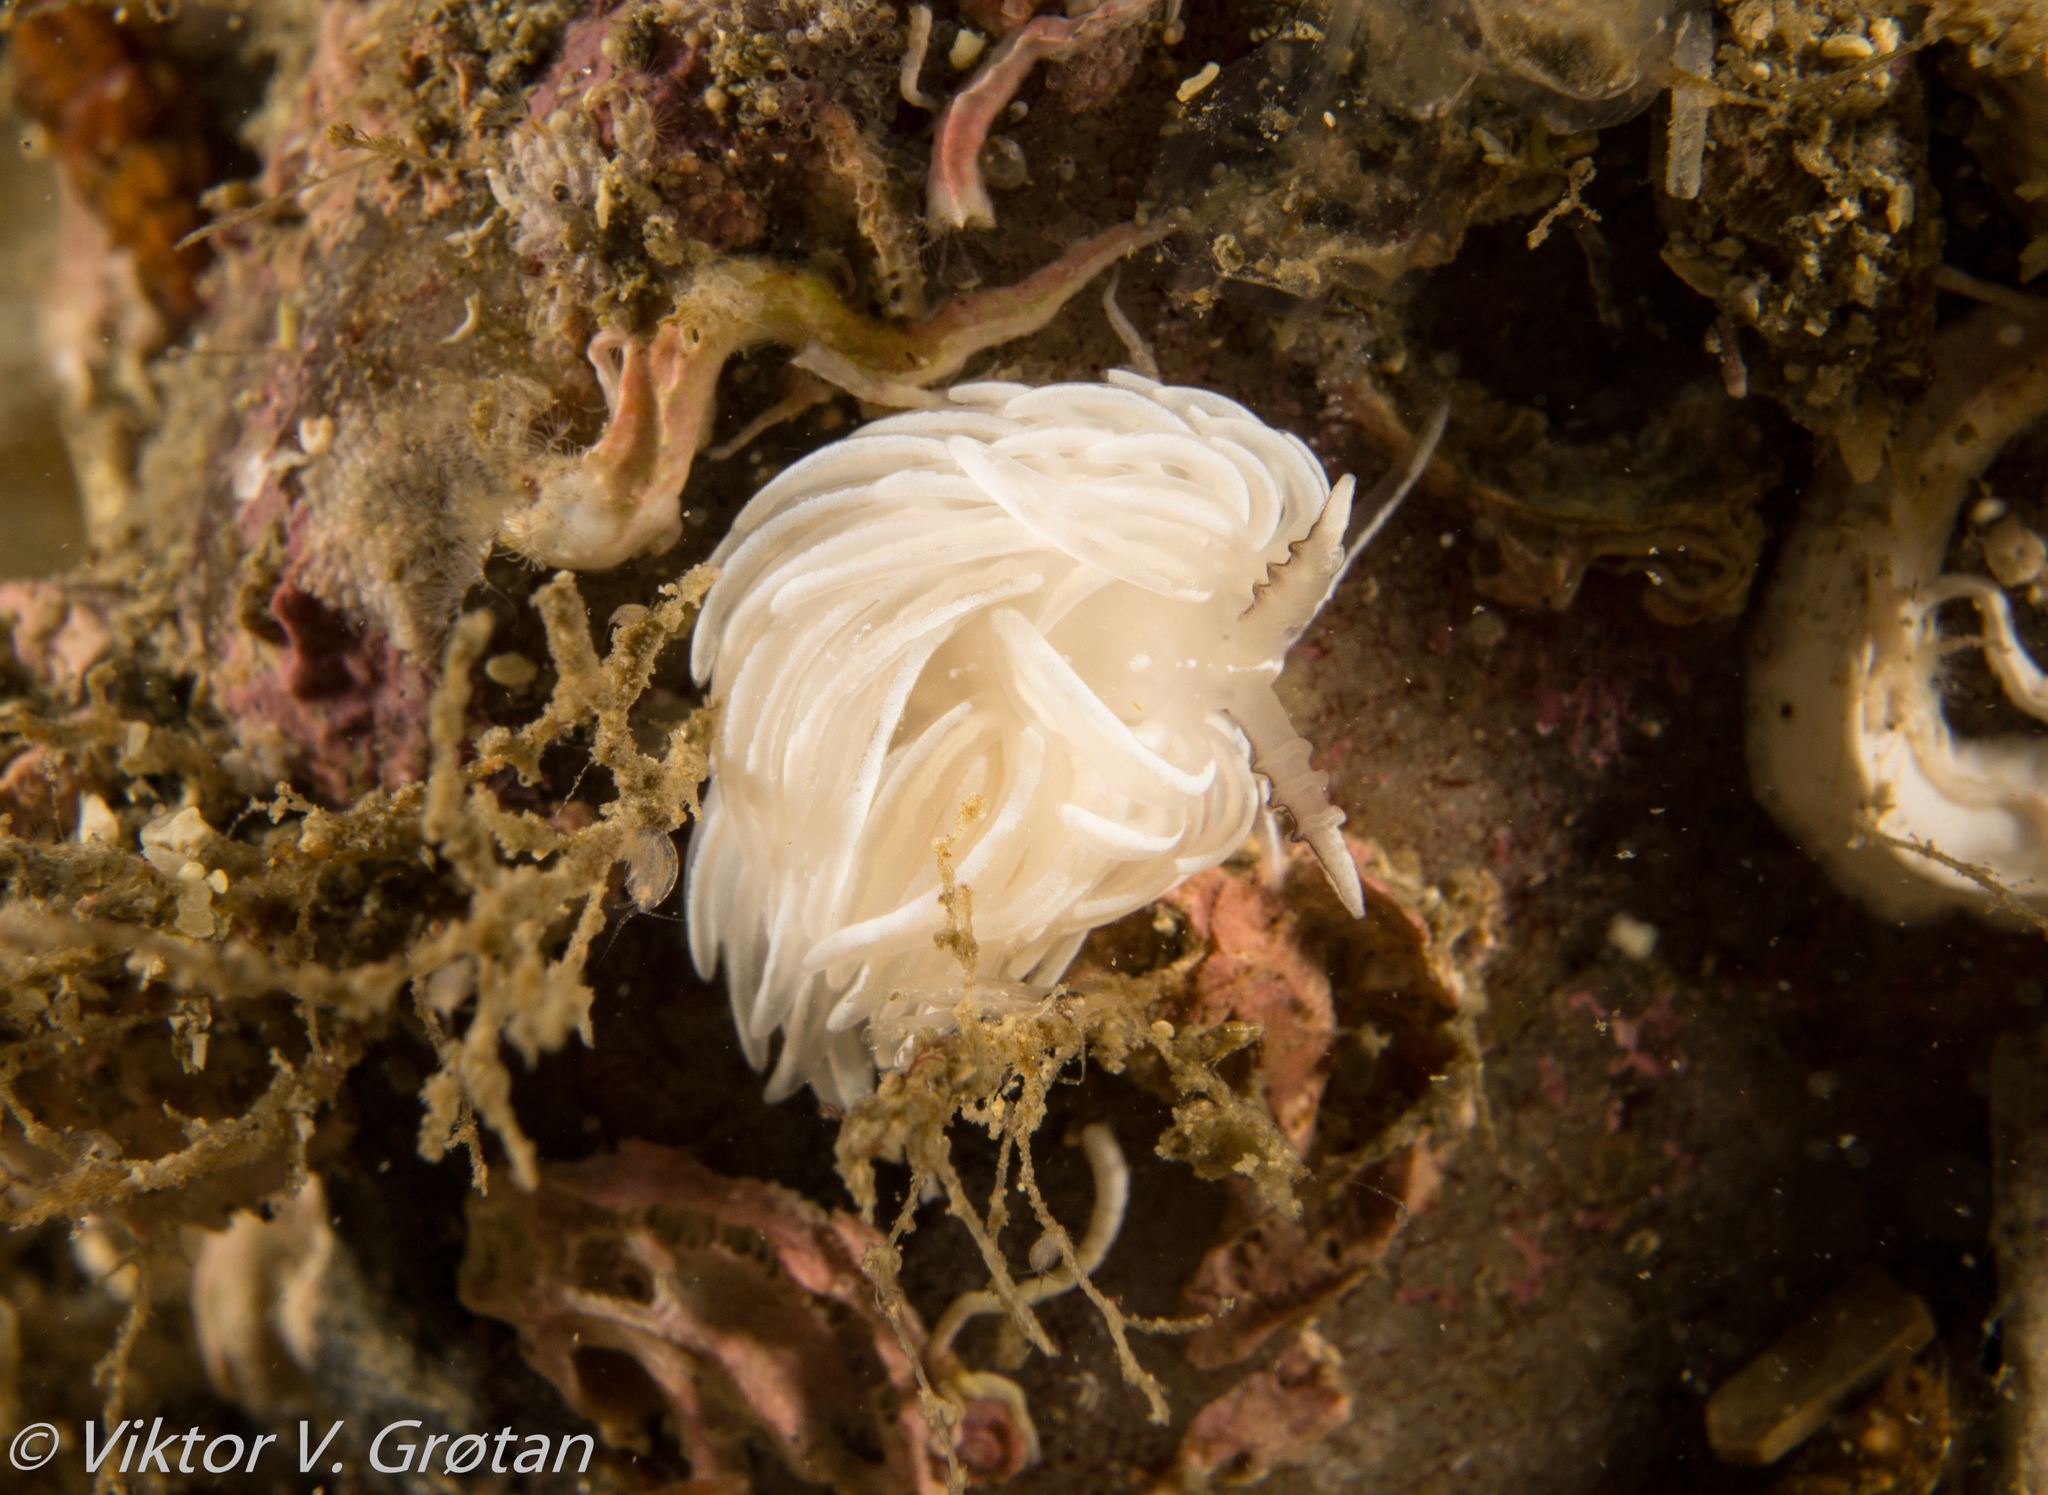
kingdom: Animalia
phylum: Mollusca
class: Gastropoda
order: Nudibranchia
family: Facelinidae
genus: Favorinus
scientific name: Favorinus blianus
